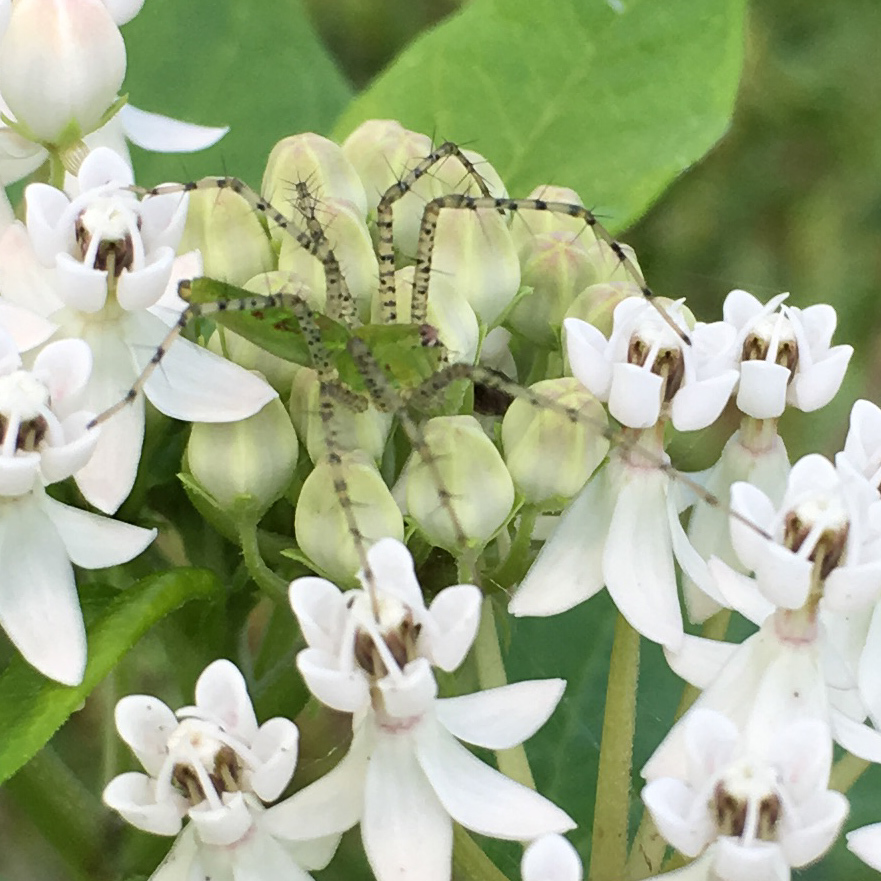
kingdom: Animalia
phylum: Arthropoda
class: Arachnida
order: Araneae
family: Oxyopidae
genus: Peucetia
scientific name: Peucetia viridans
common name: Lynx spiders
